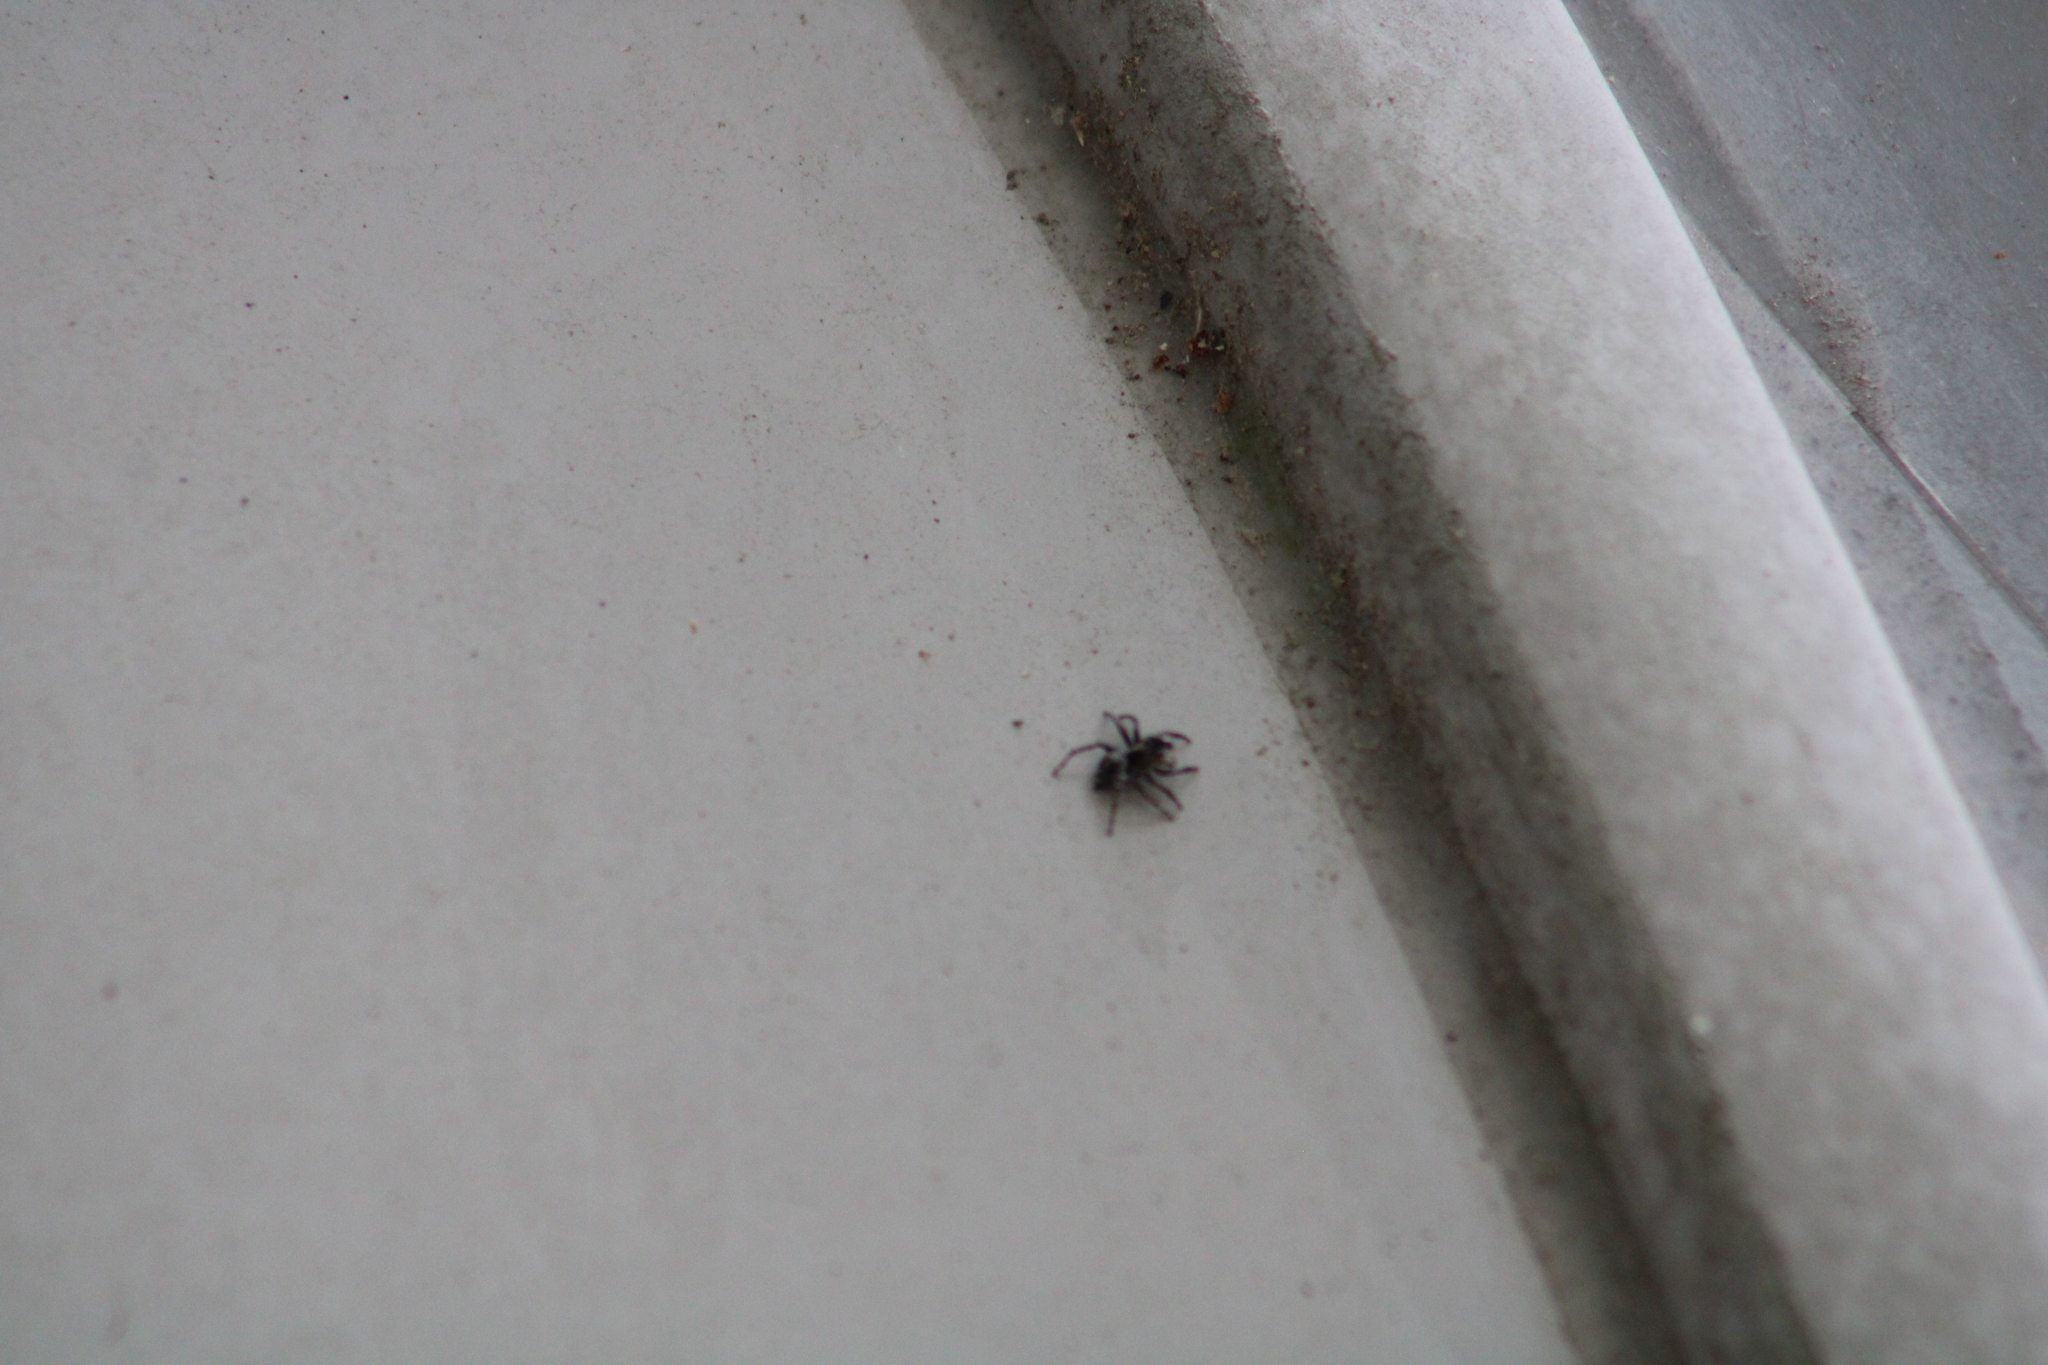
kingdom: Animalia
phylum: Arthropoda
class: Arachnida
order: Araneae
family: Salticidae
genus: Naphrys
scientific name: Naphrys pulex
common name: Flea jumping spider
